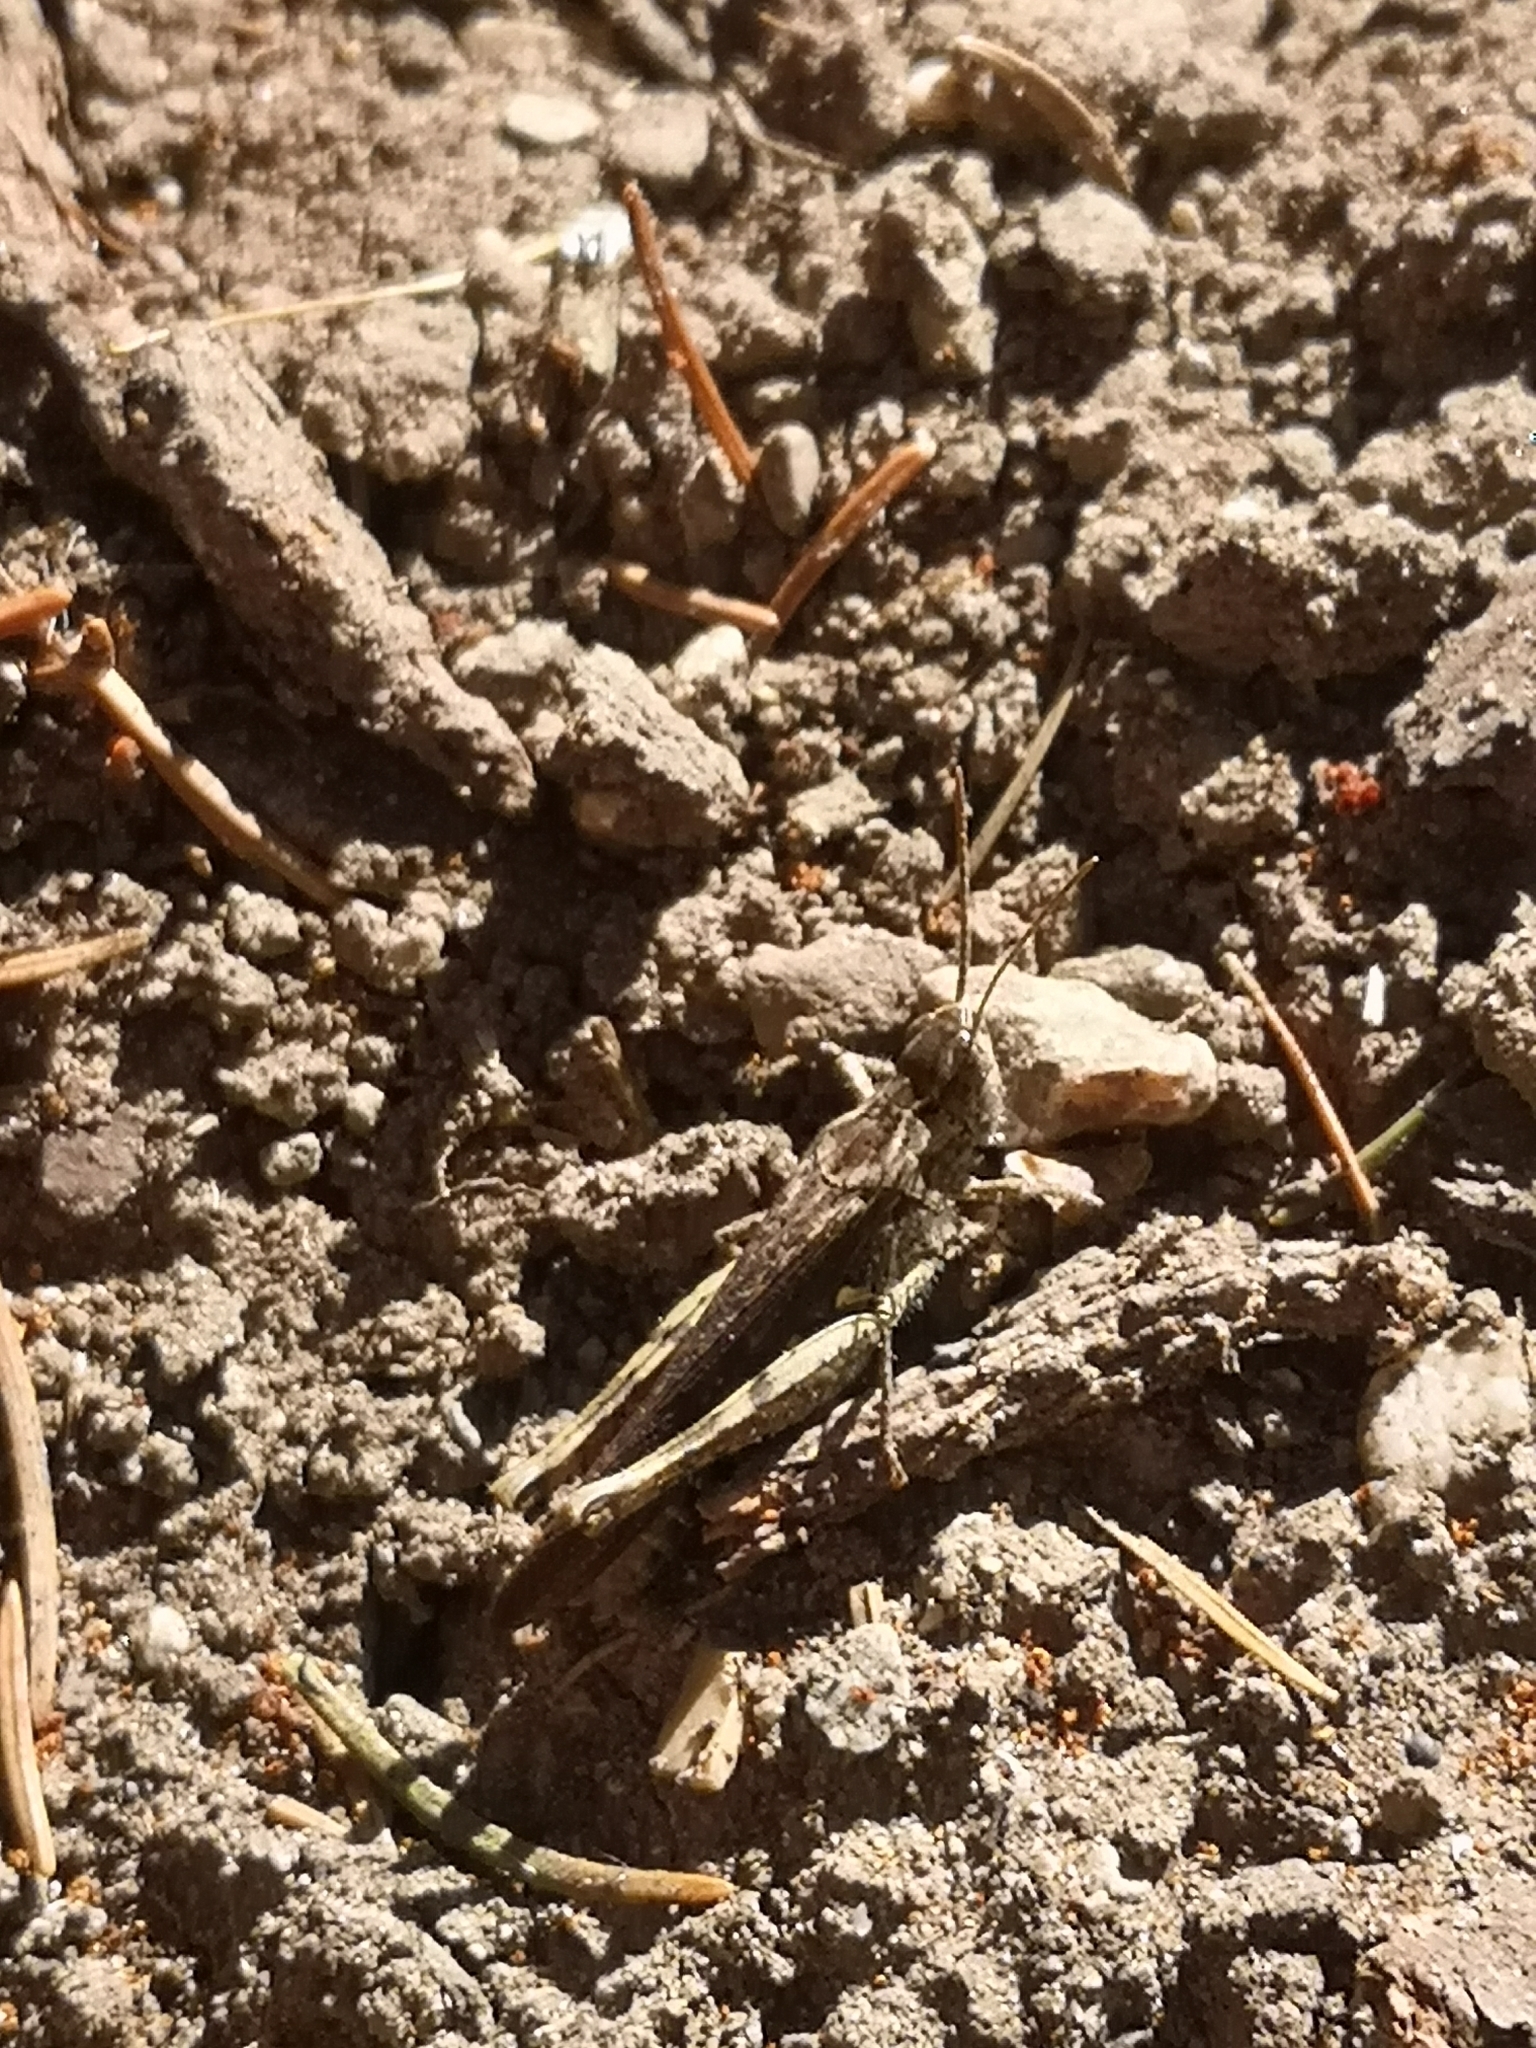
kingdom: Animalia
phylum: Arthropoda
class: Insecta
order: Orthoptera
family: Acrididae
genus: Chorthippus
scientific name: Chorthippus brunneus
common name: Field grasshopper
